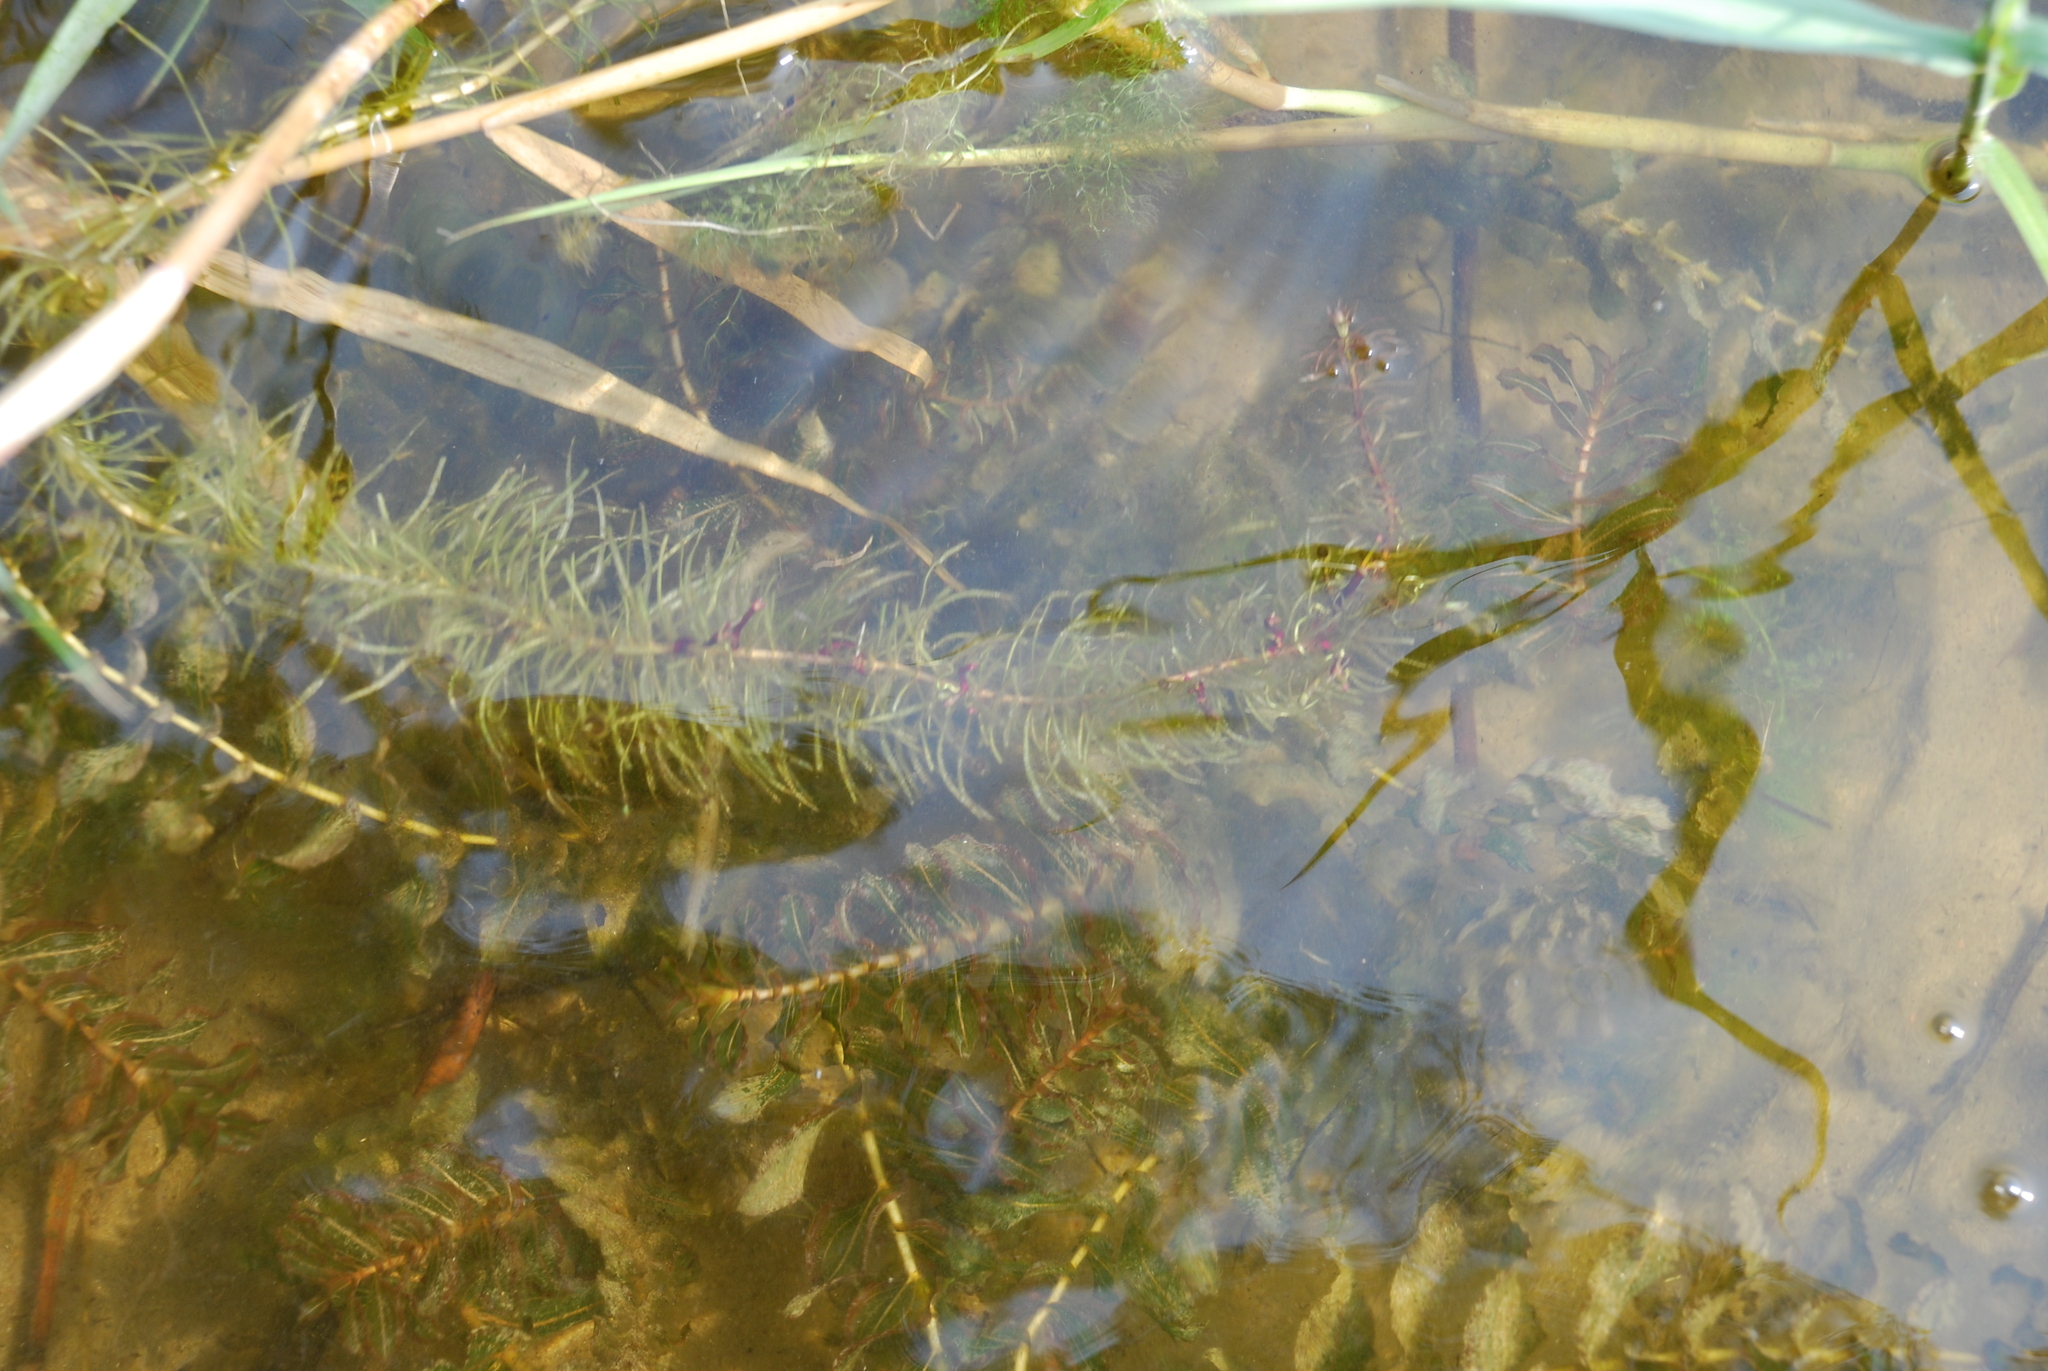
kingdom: Plantae
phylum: Tracheophyta
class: Magnoliopsida
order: Lamiales
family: Plantaginaceae
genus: Hippuris
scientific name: Hippuris vulgaris
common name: Mare's-tail
